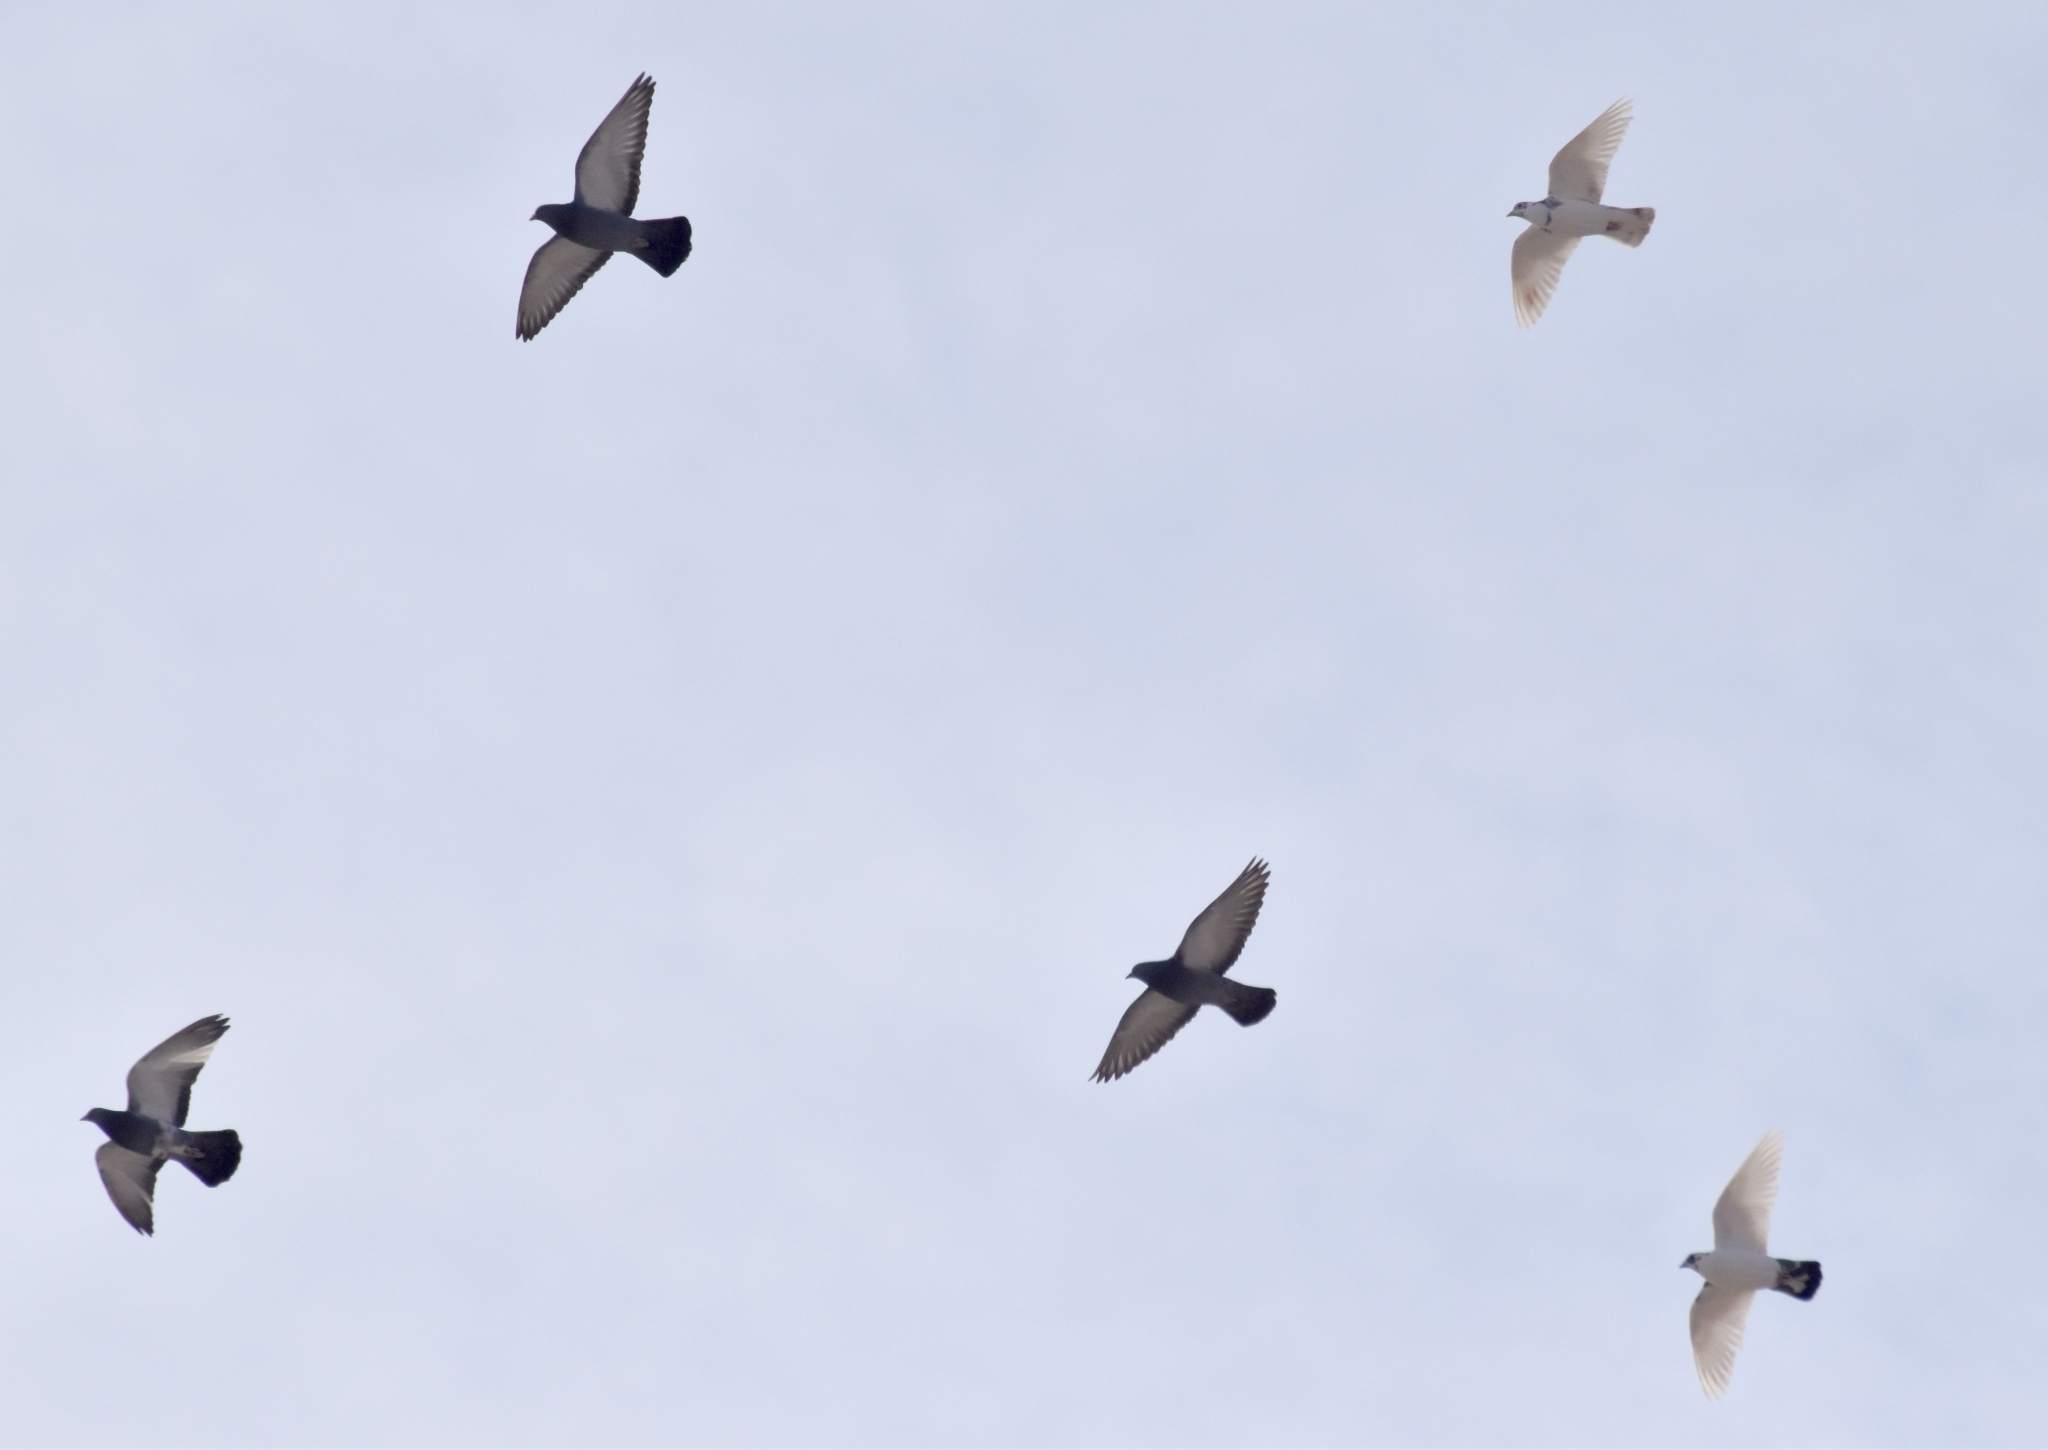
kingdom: Animalia
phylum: Chordata
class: Aves
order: Columbiformes
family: Columbidae
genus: Columba
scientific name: Columba livia
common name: Rock pigeon
